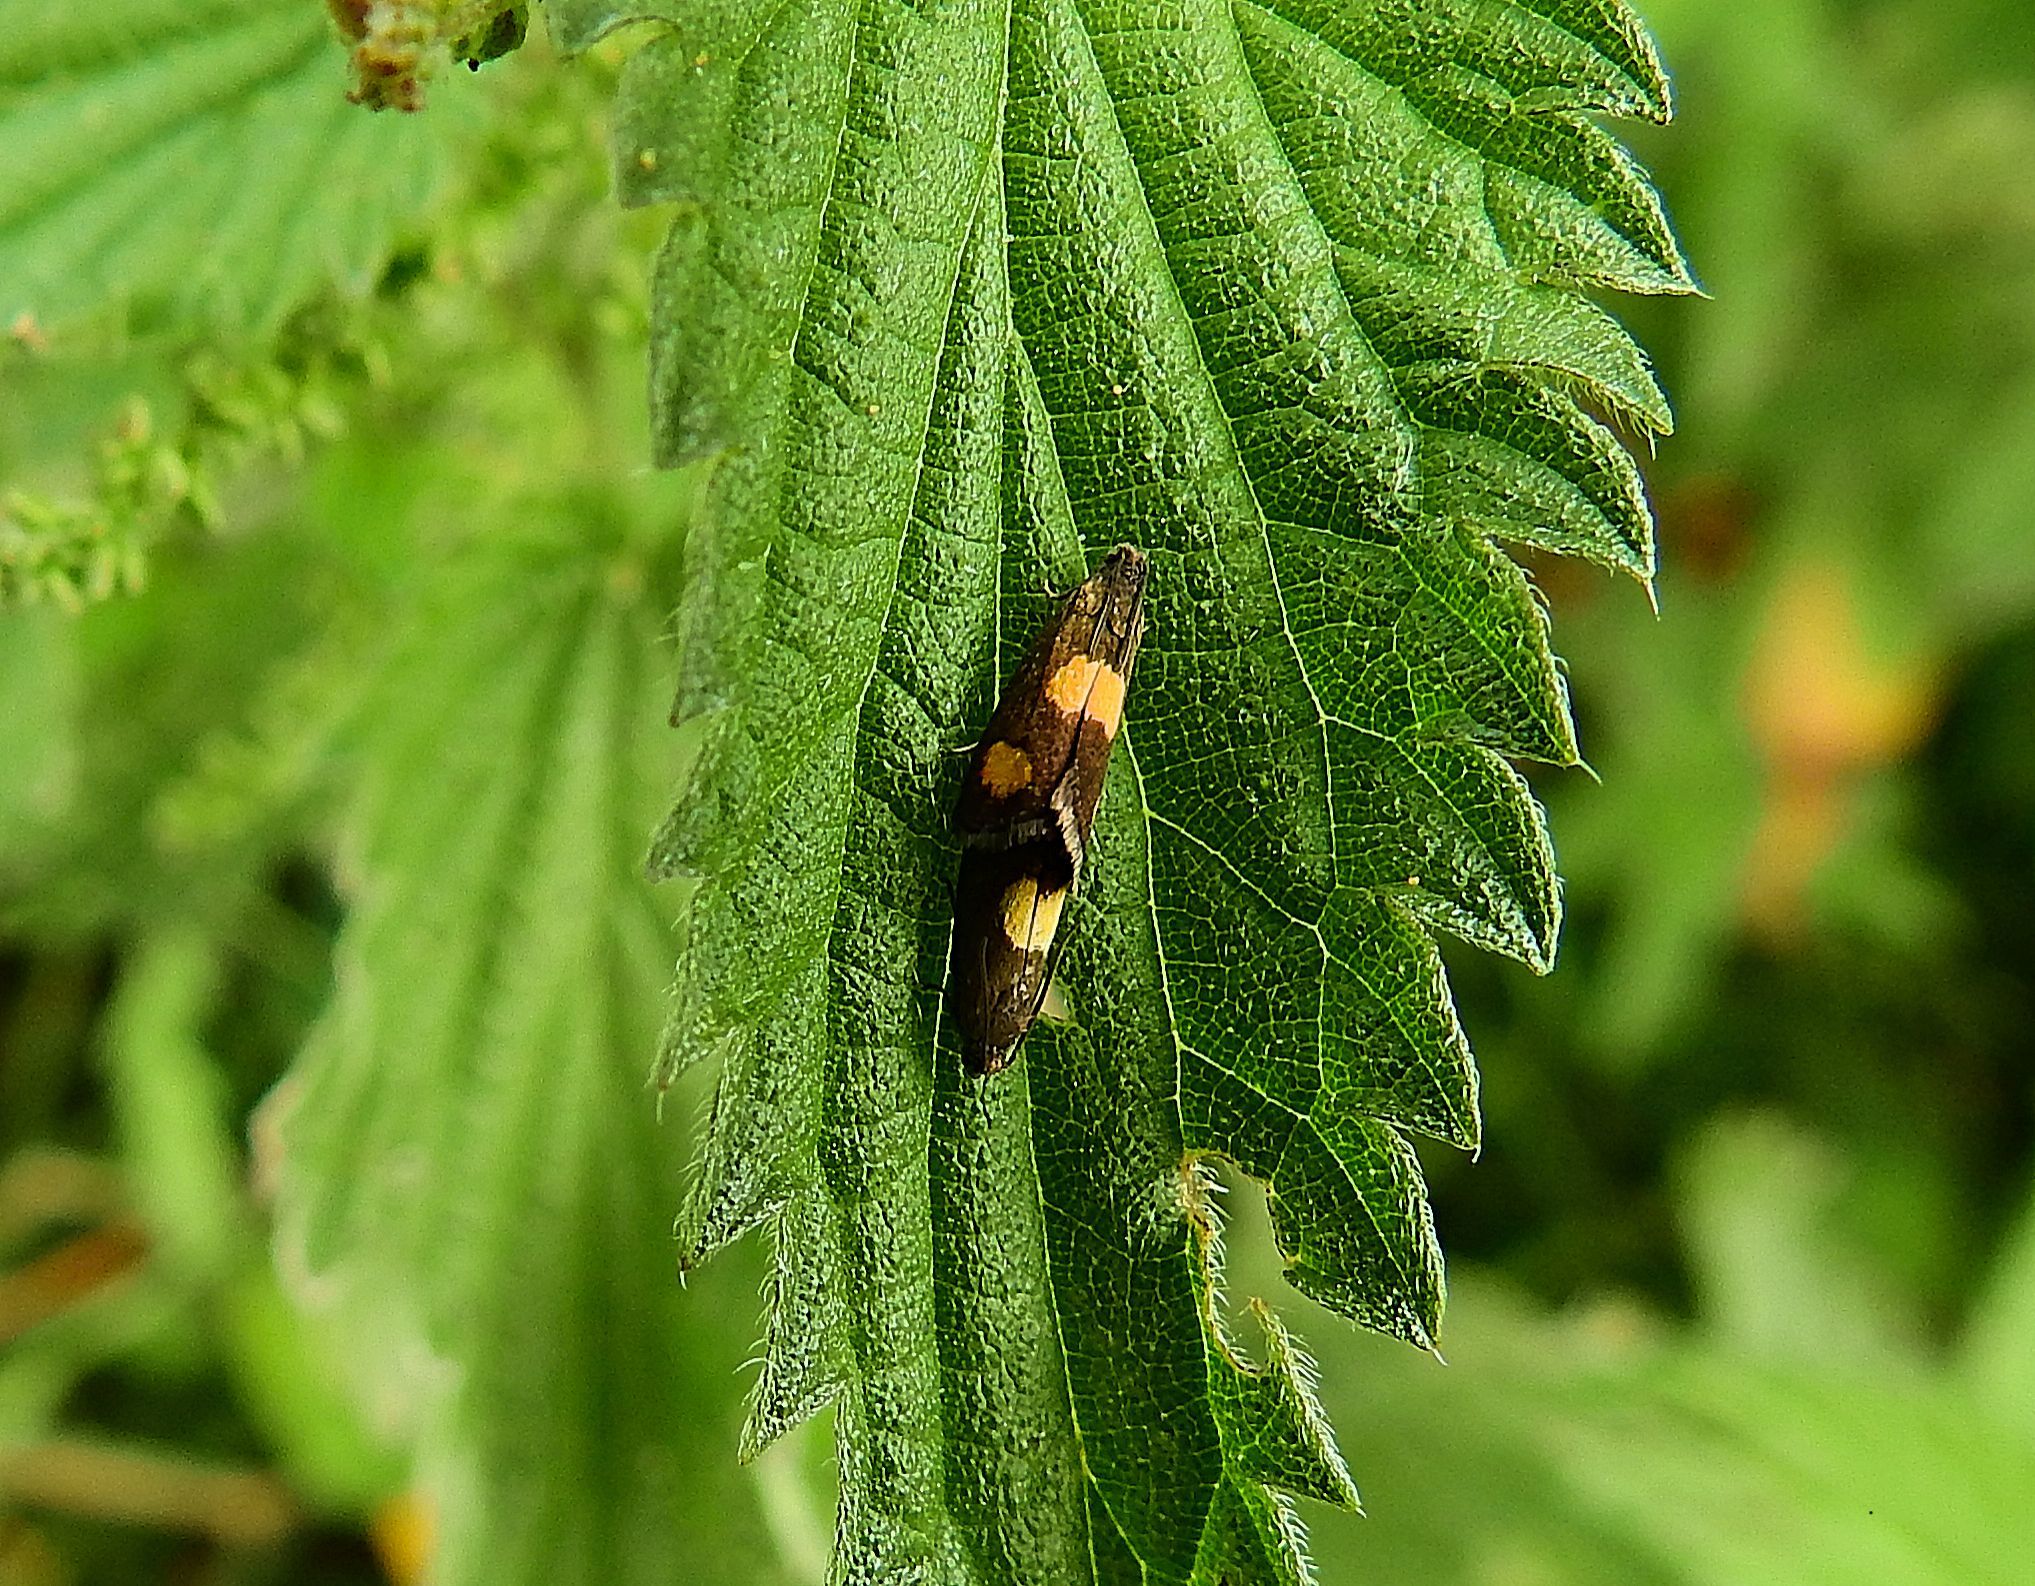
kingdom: Animalia
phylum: Arthropoda
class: Insecta
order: Lepidoptera
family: Tortricidae
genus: Pammene
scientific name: Pammene aurana
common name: Orange-spot piercer
